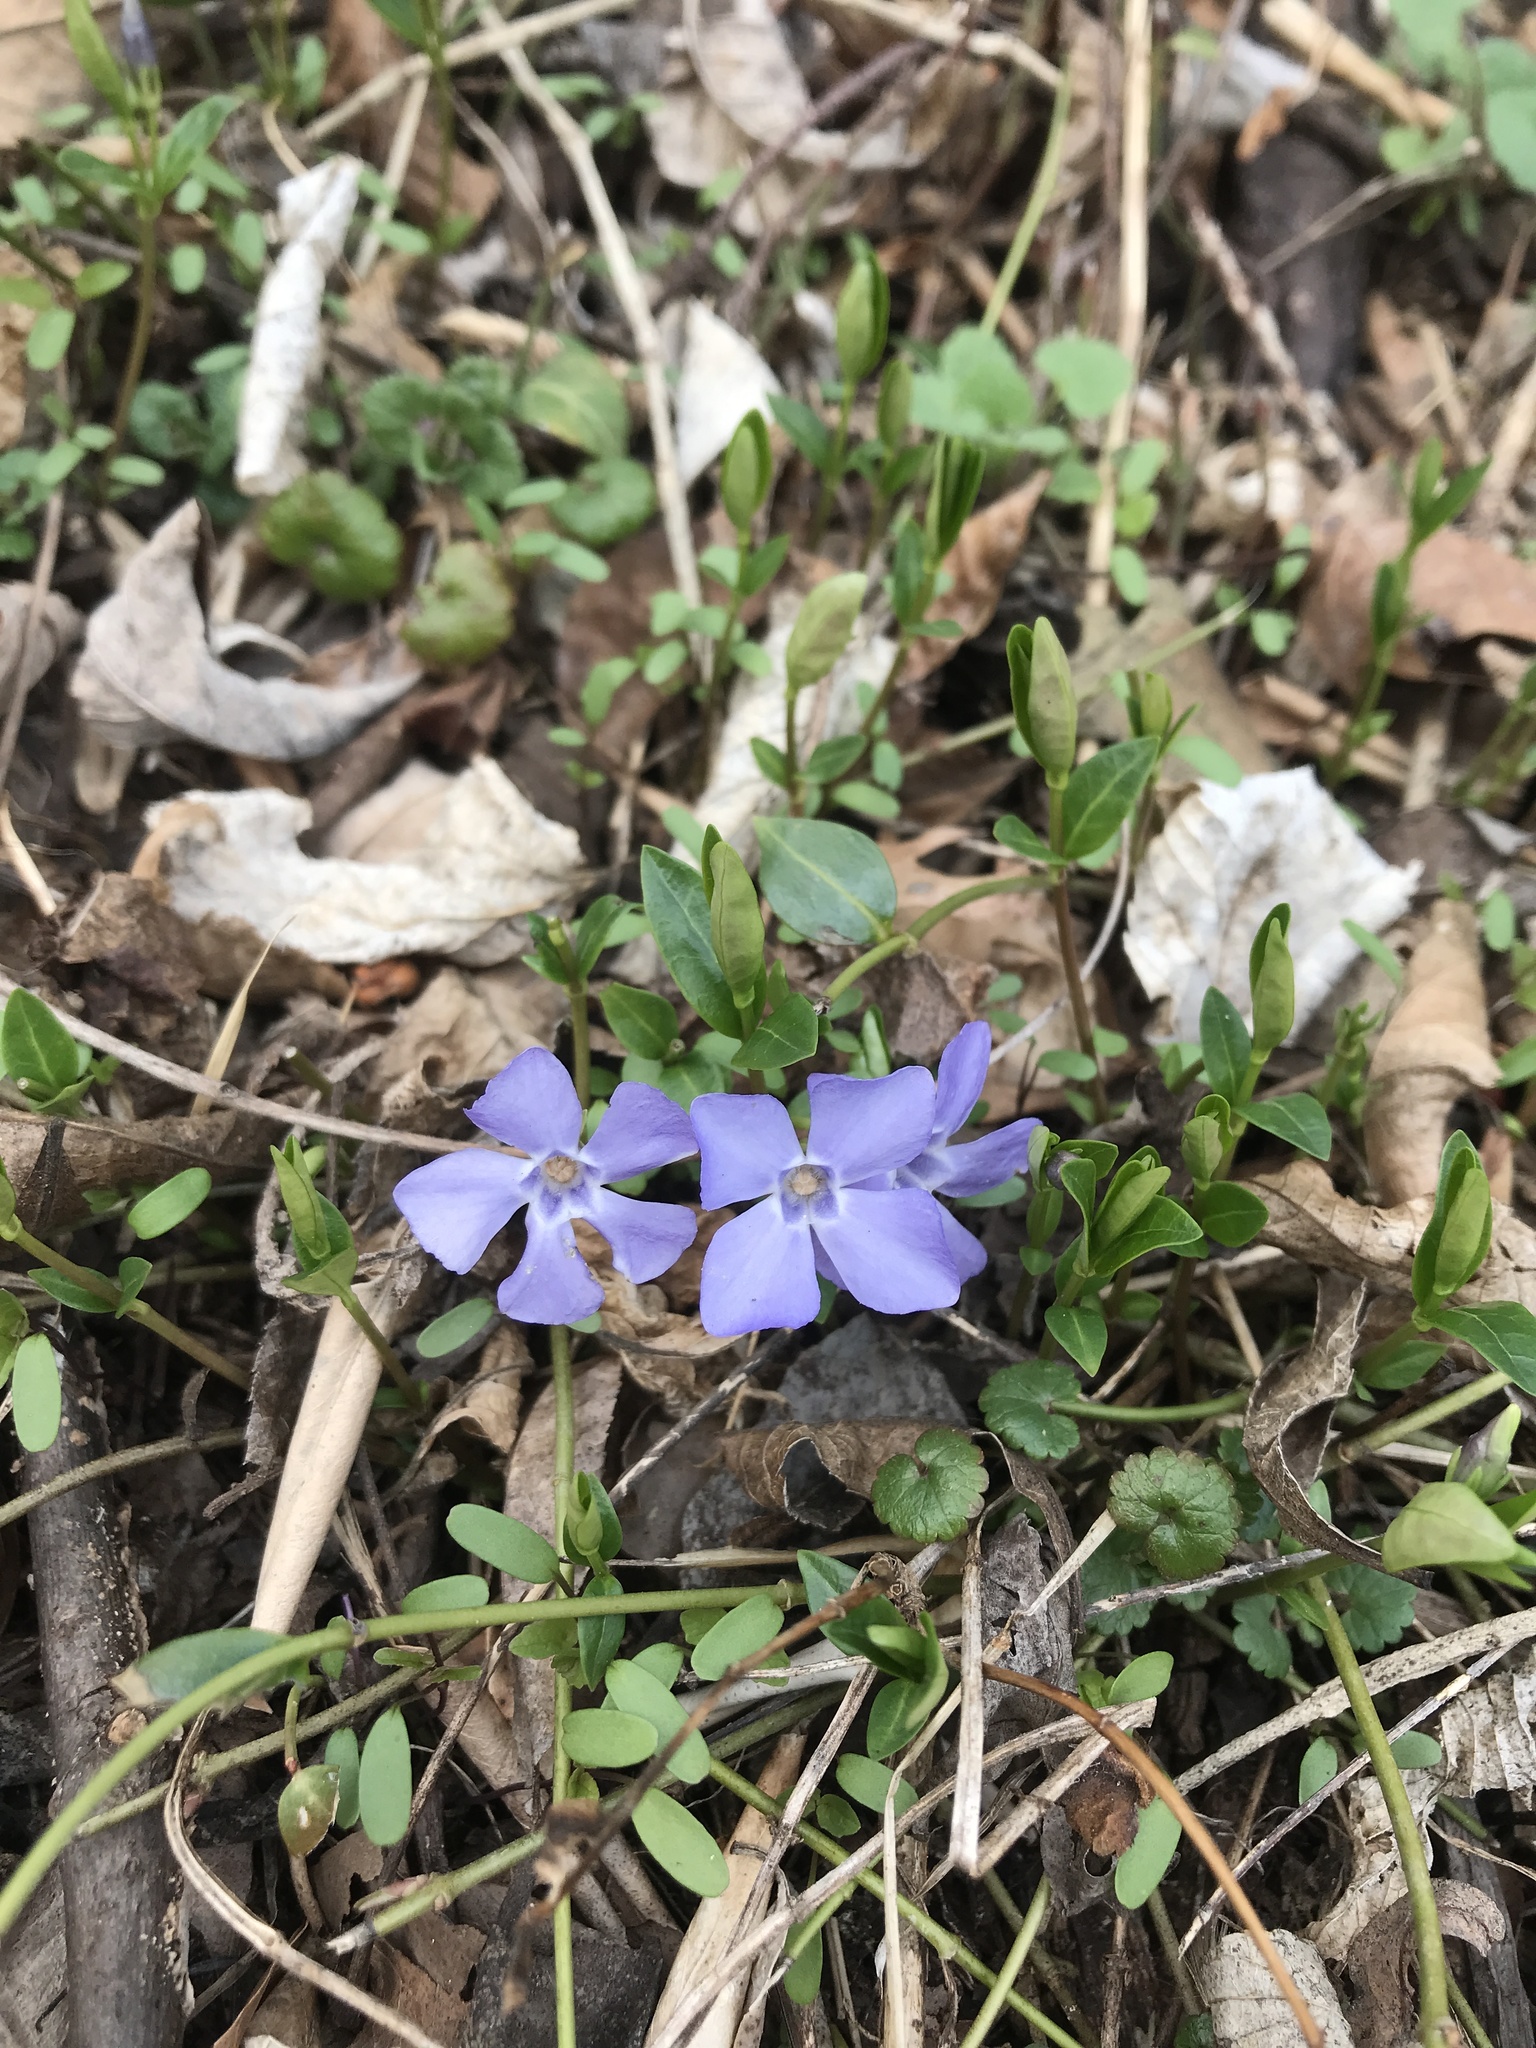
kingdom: Plantae
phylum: Tracheophyta
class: Magnoliopsida
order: Gentianales
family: Apocynaceae
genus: Vinca
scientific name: Vinca minor
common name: Lesser periwinkle
